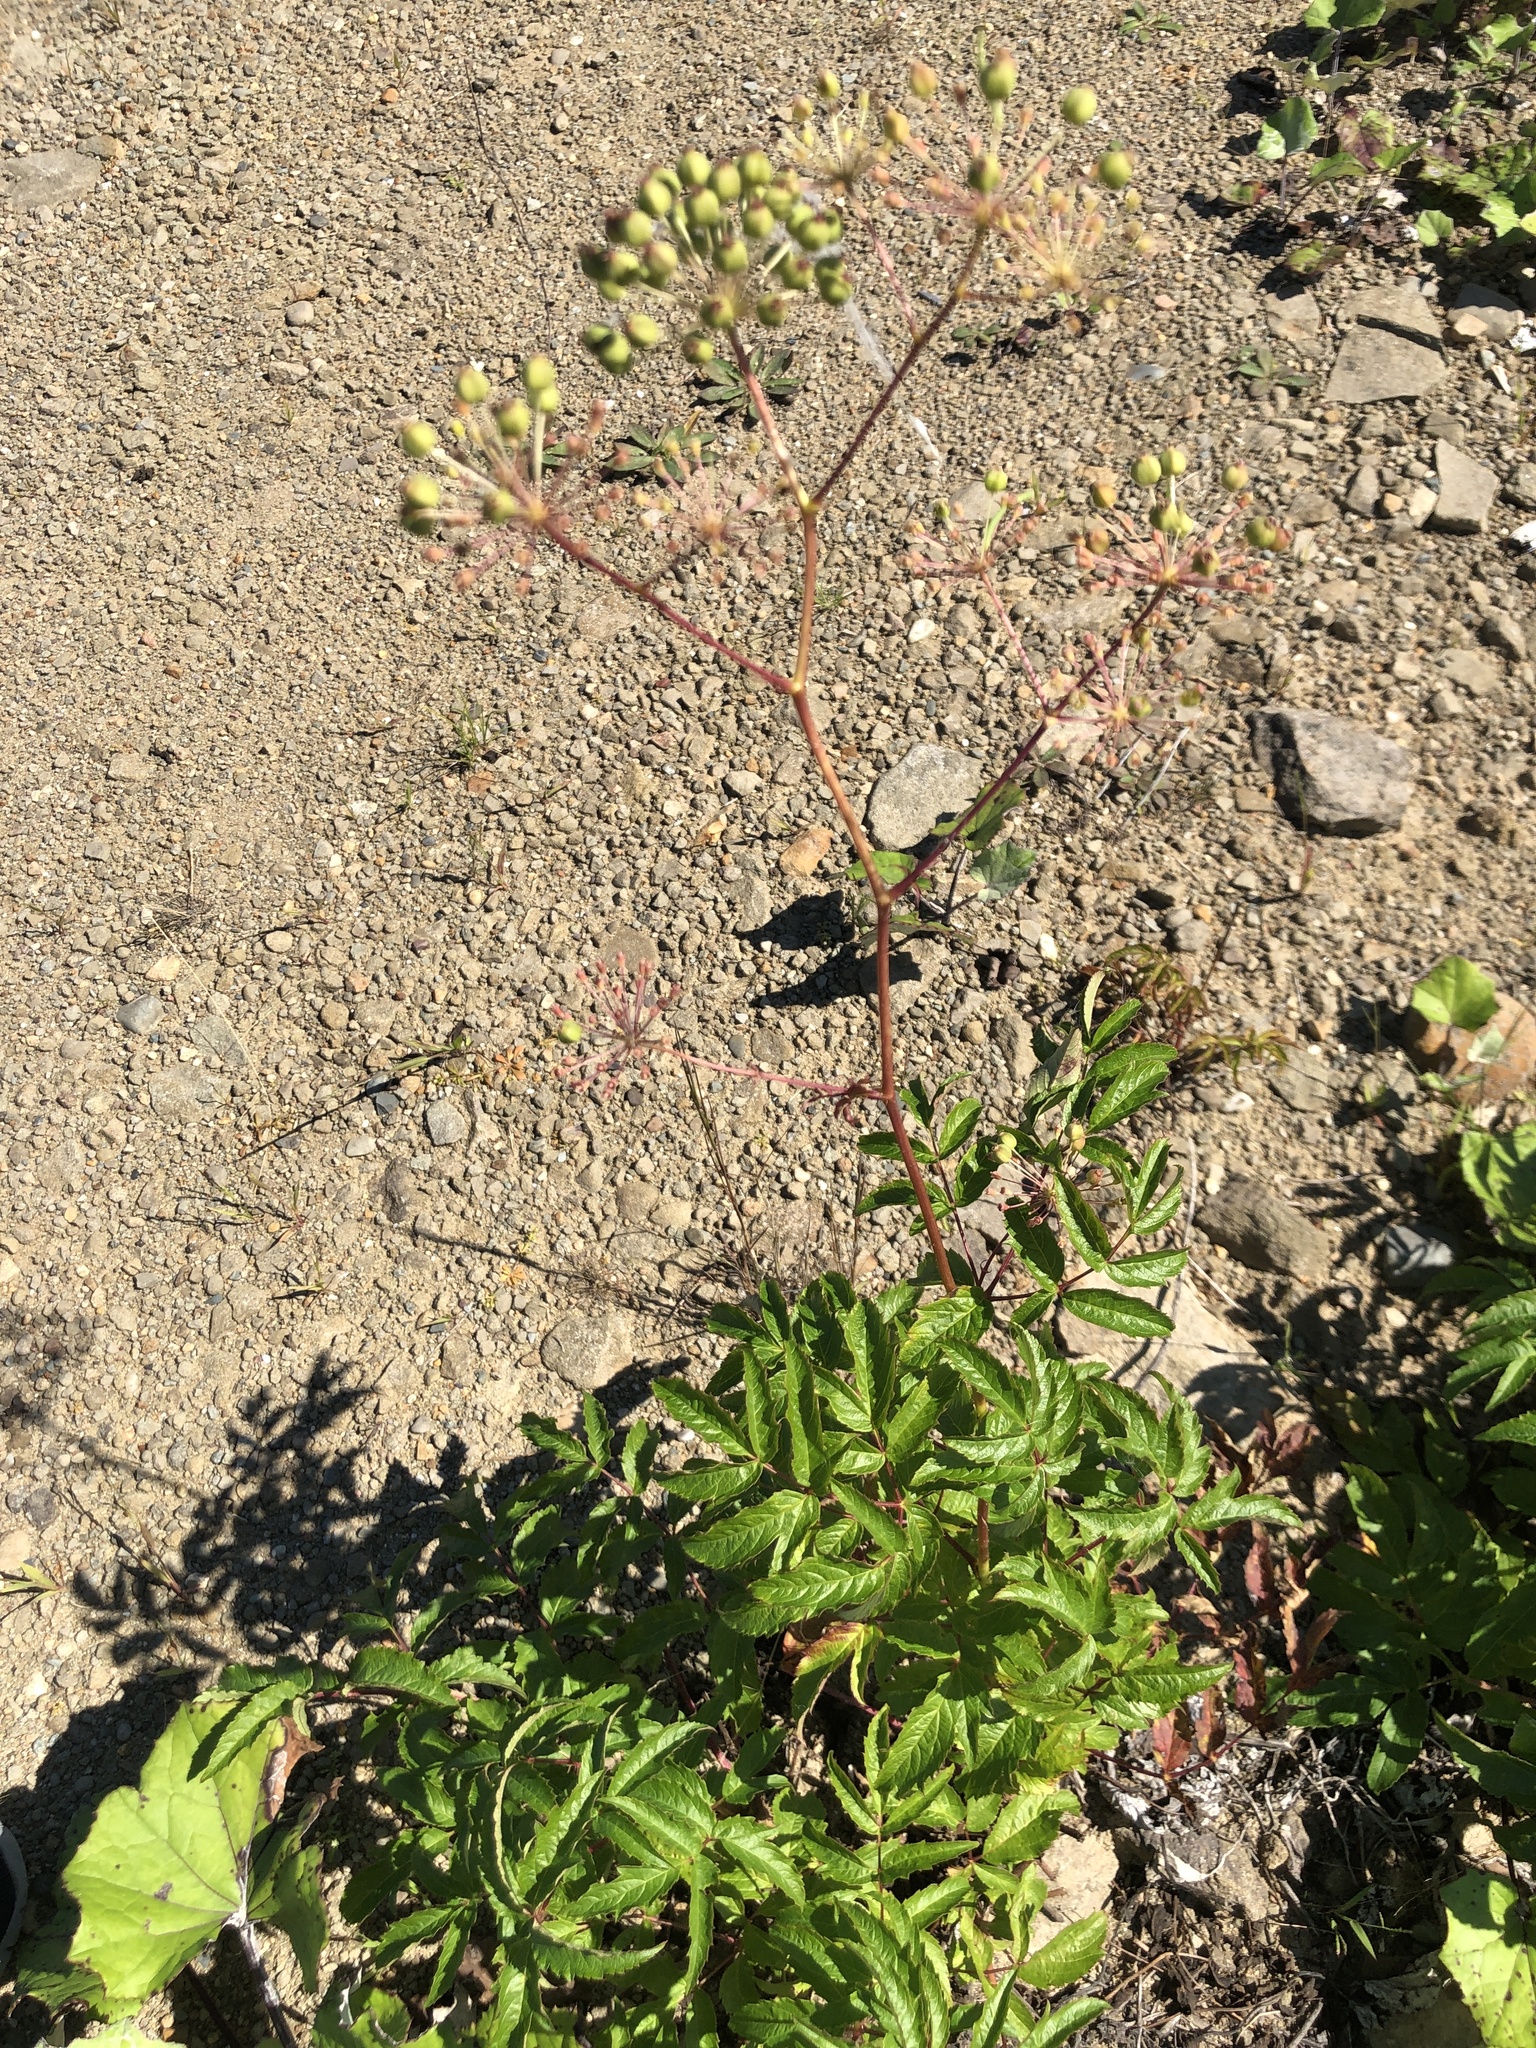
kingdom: Plantae
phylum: Tracheophyta
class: Magnoliopsida
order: Apiales
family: Araliaceae
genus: Aralia
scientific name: Aralia hispida
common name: Bristly sarsaparilla
